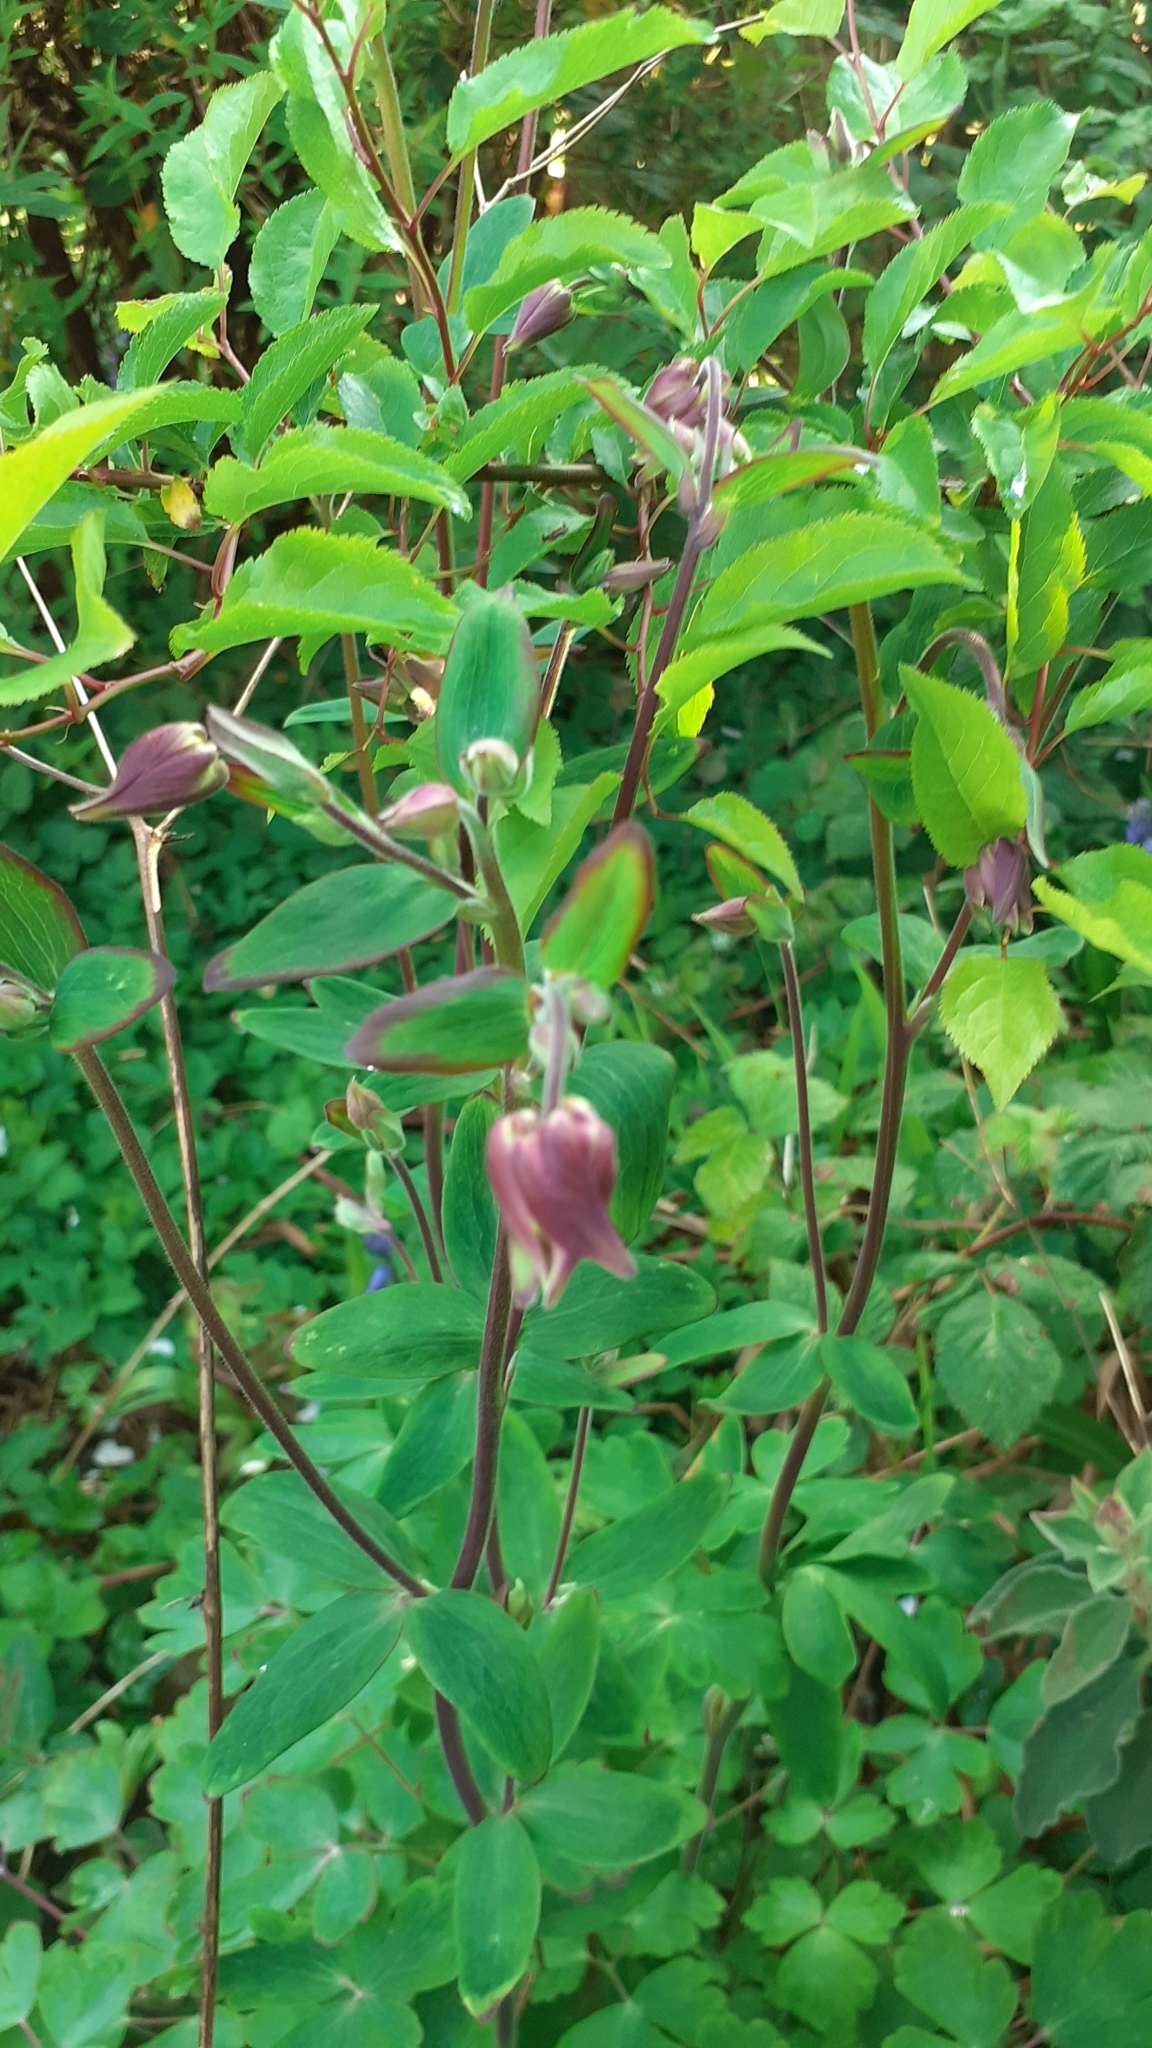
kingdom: Plantae
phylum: Tracheophyta
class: Magnoliopsida
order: Ranunculales
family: Ranunculaceae
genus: Aquilegia
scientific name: Aquilegia vulgaris
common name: Columbine
